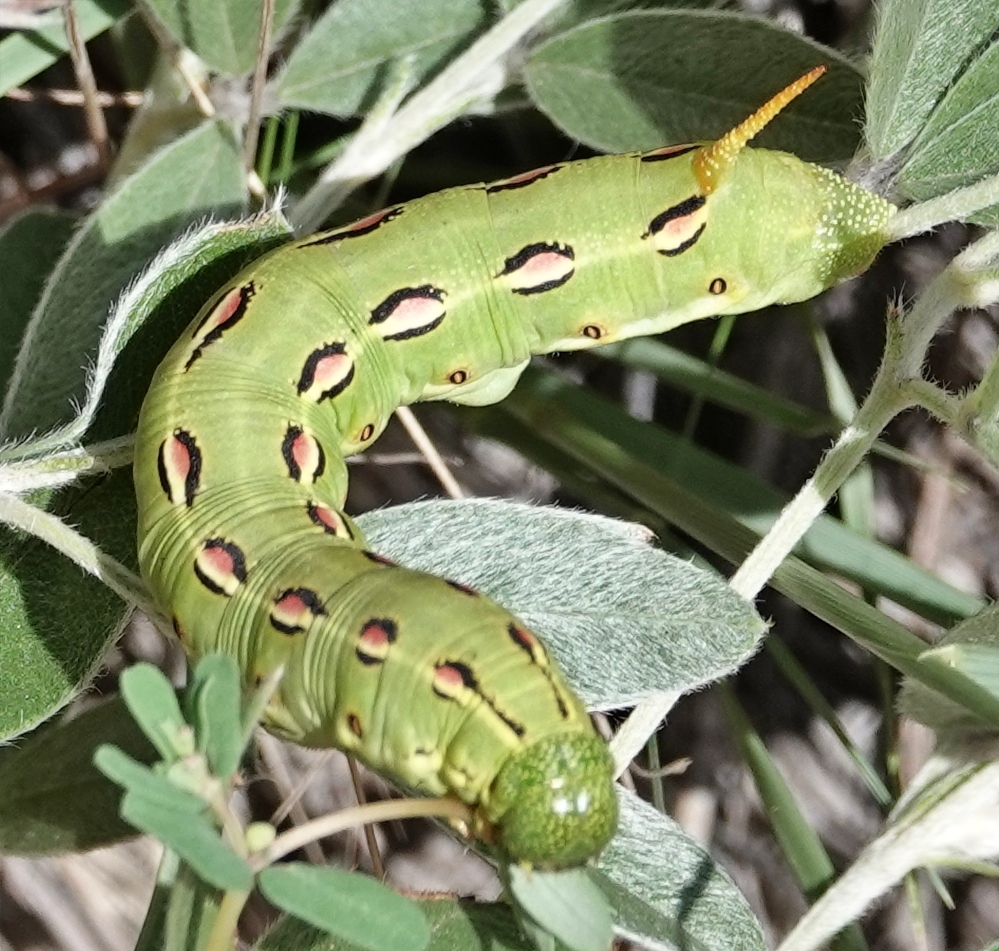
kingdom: Animalia
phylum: Arthropoda
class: Insecta
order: Lepidoptera
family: Sphingidae
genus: Hyles
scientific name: Hyles lineata
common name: White-lined sphinx
